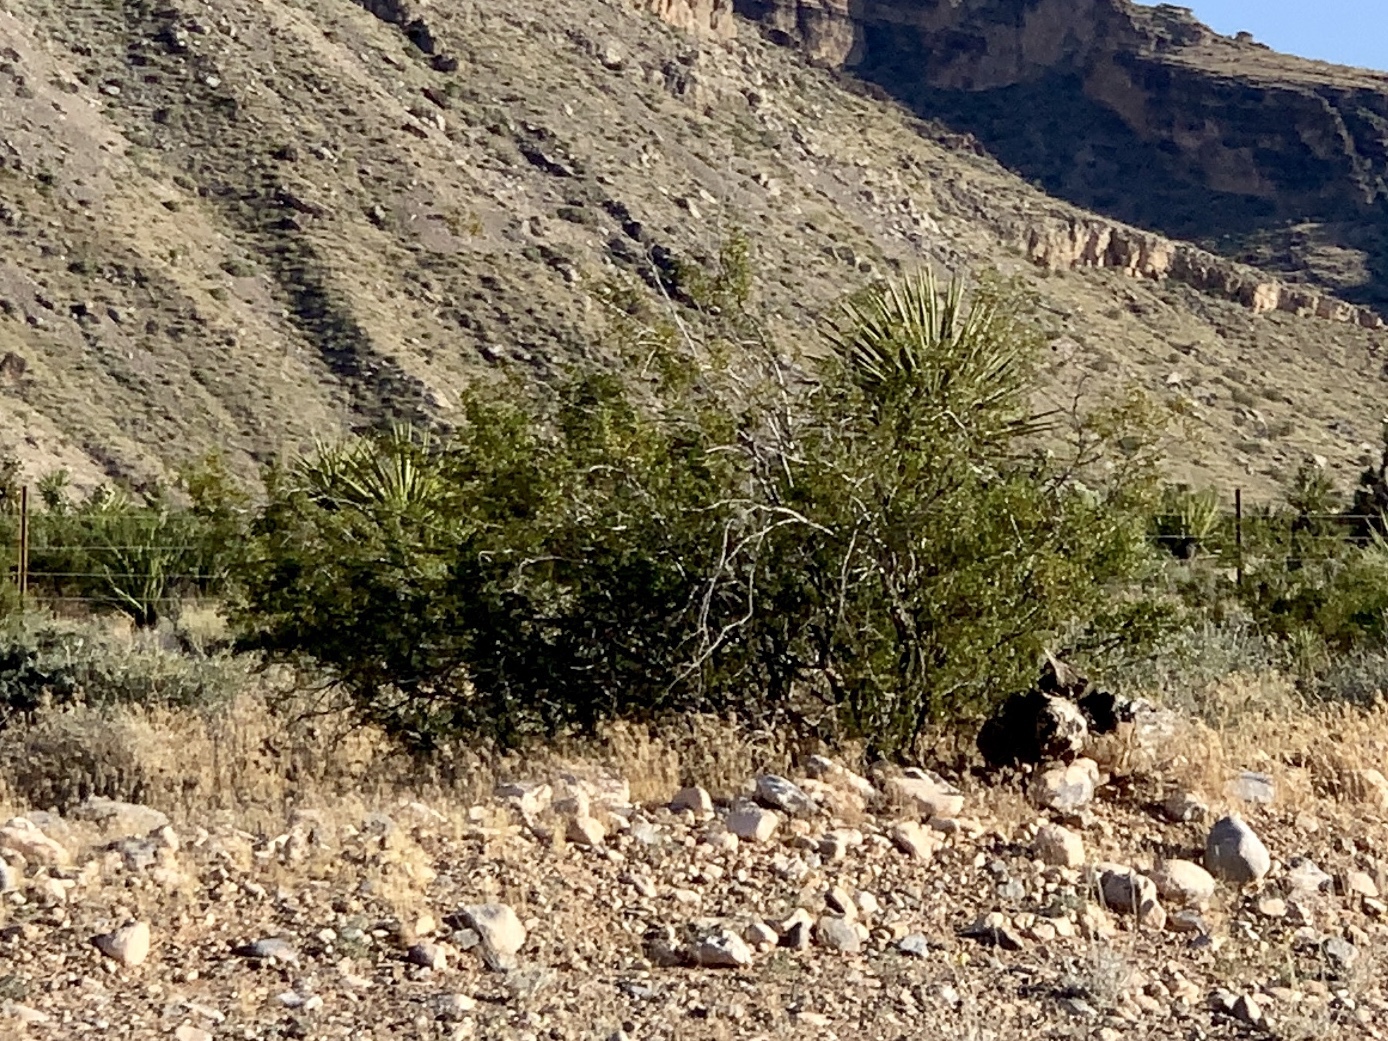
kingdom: Plantae
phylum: Tracheophyta
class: Magnoliopsida
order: Zygophyllales
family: Zygophyllaceae
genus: Larrea
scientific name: Larrea tridentata
